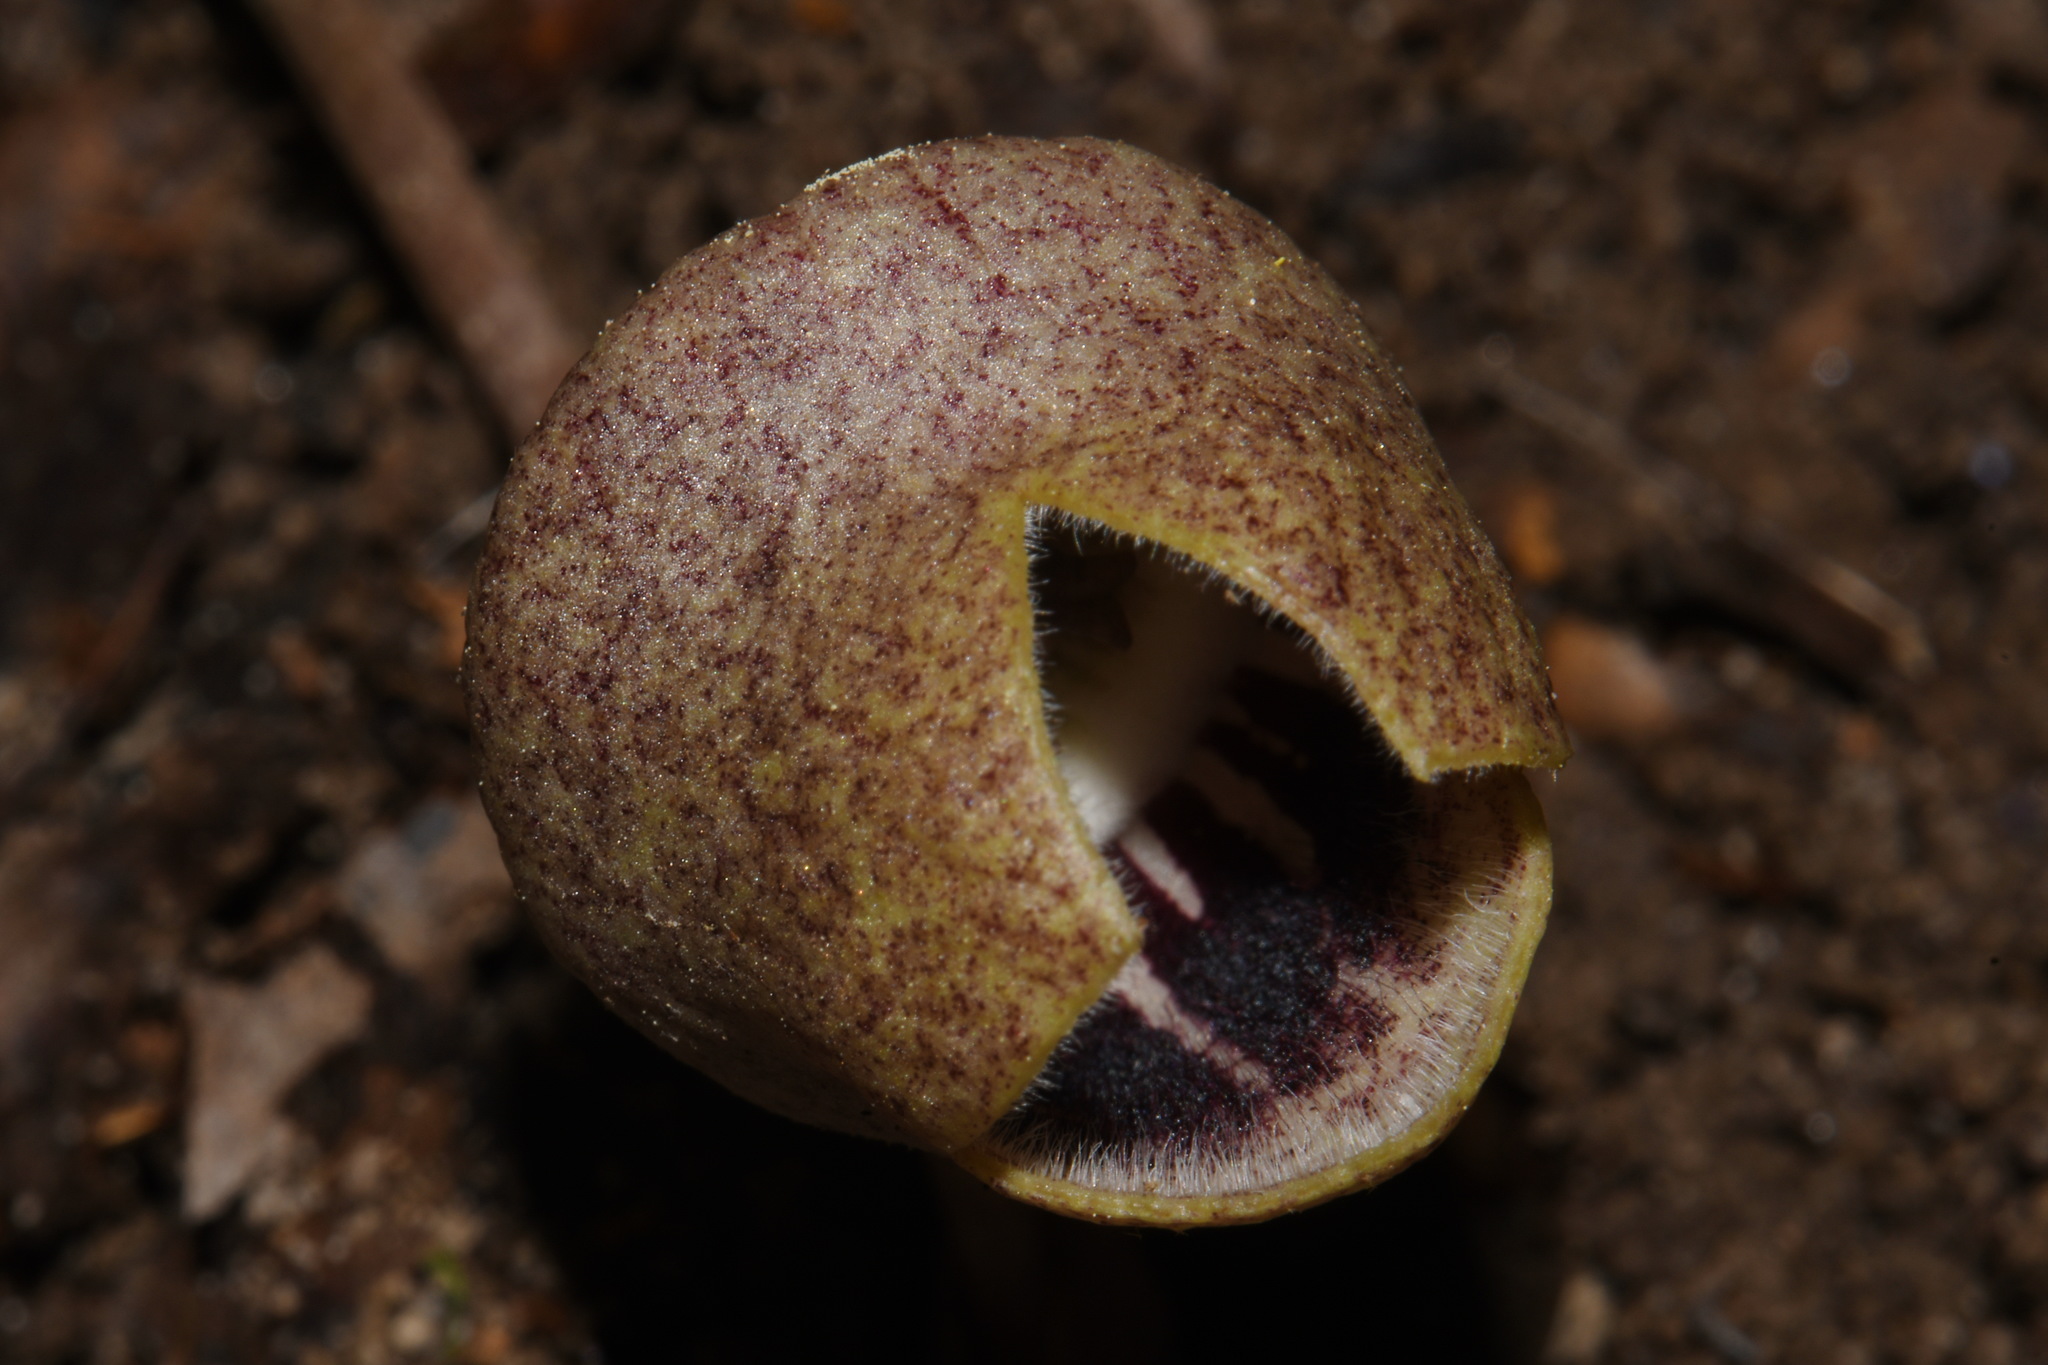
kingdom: Plantae
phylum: Tracheophyta
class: Magnoliopsida
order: Piperales
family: Aristolochiaceae
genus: Hexastylis
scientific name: Hexastylis finzelii
